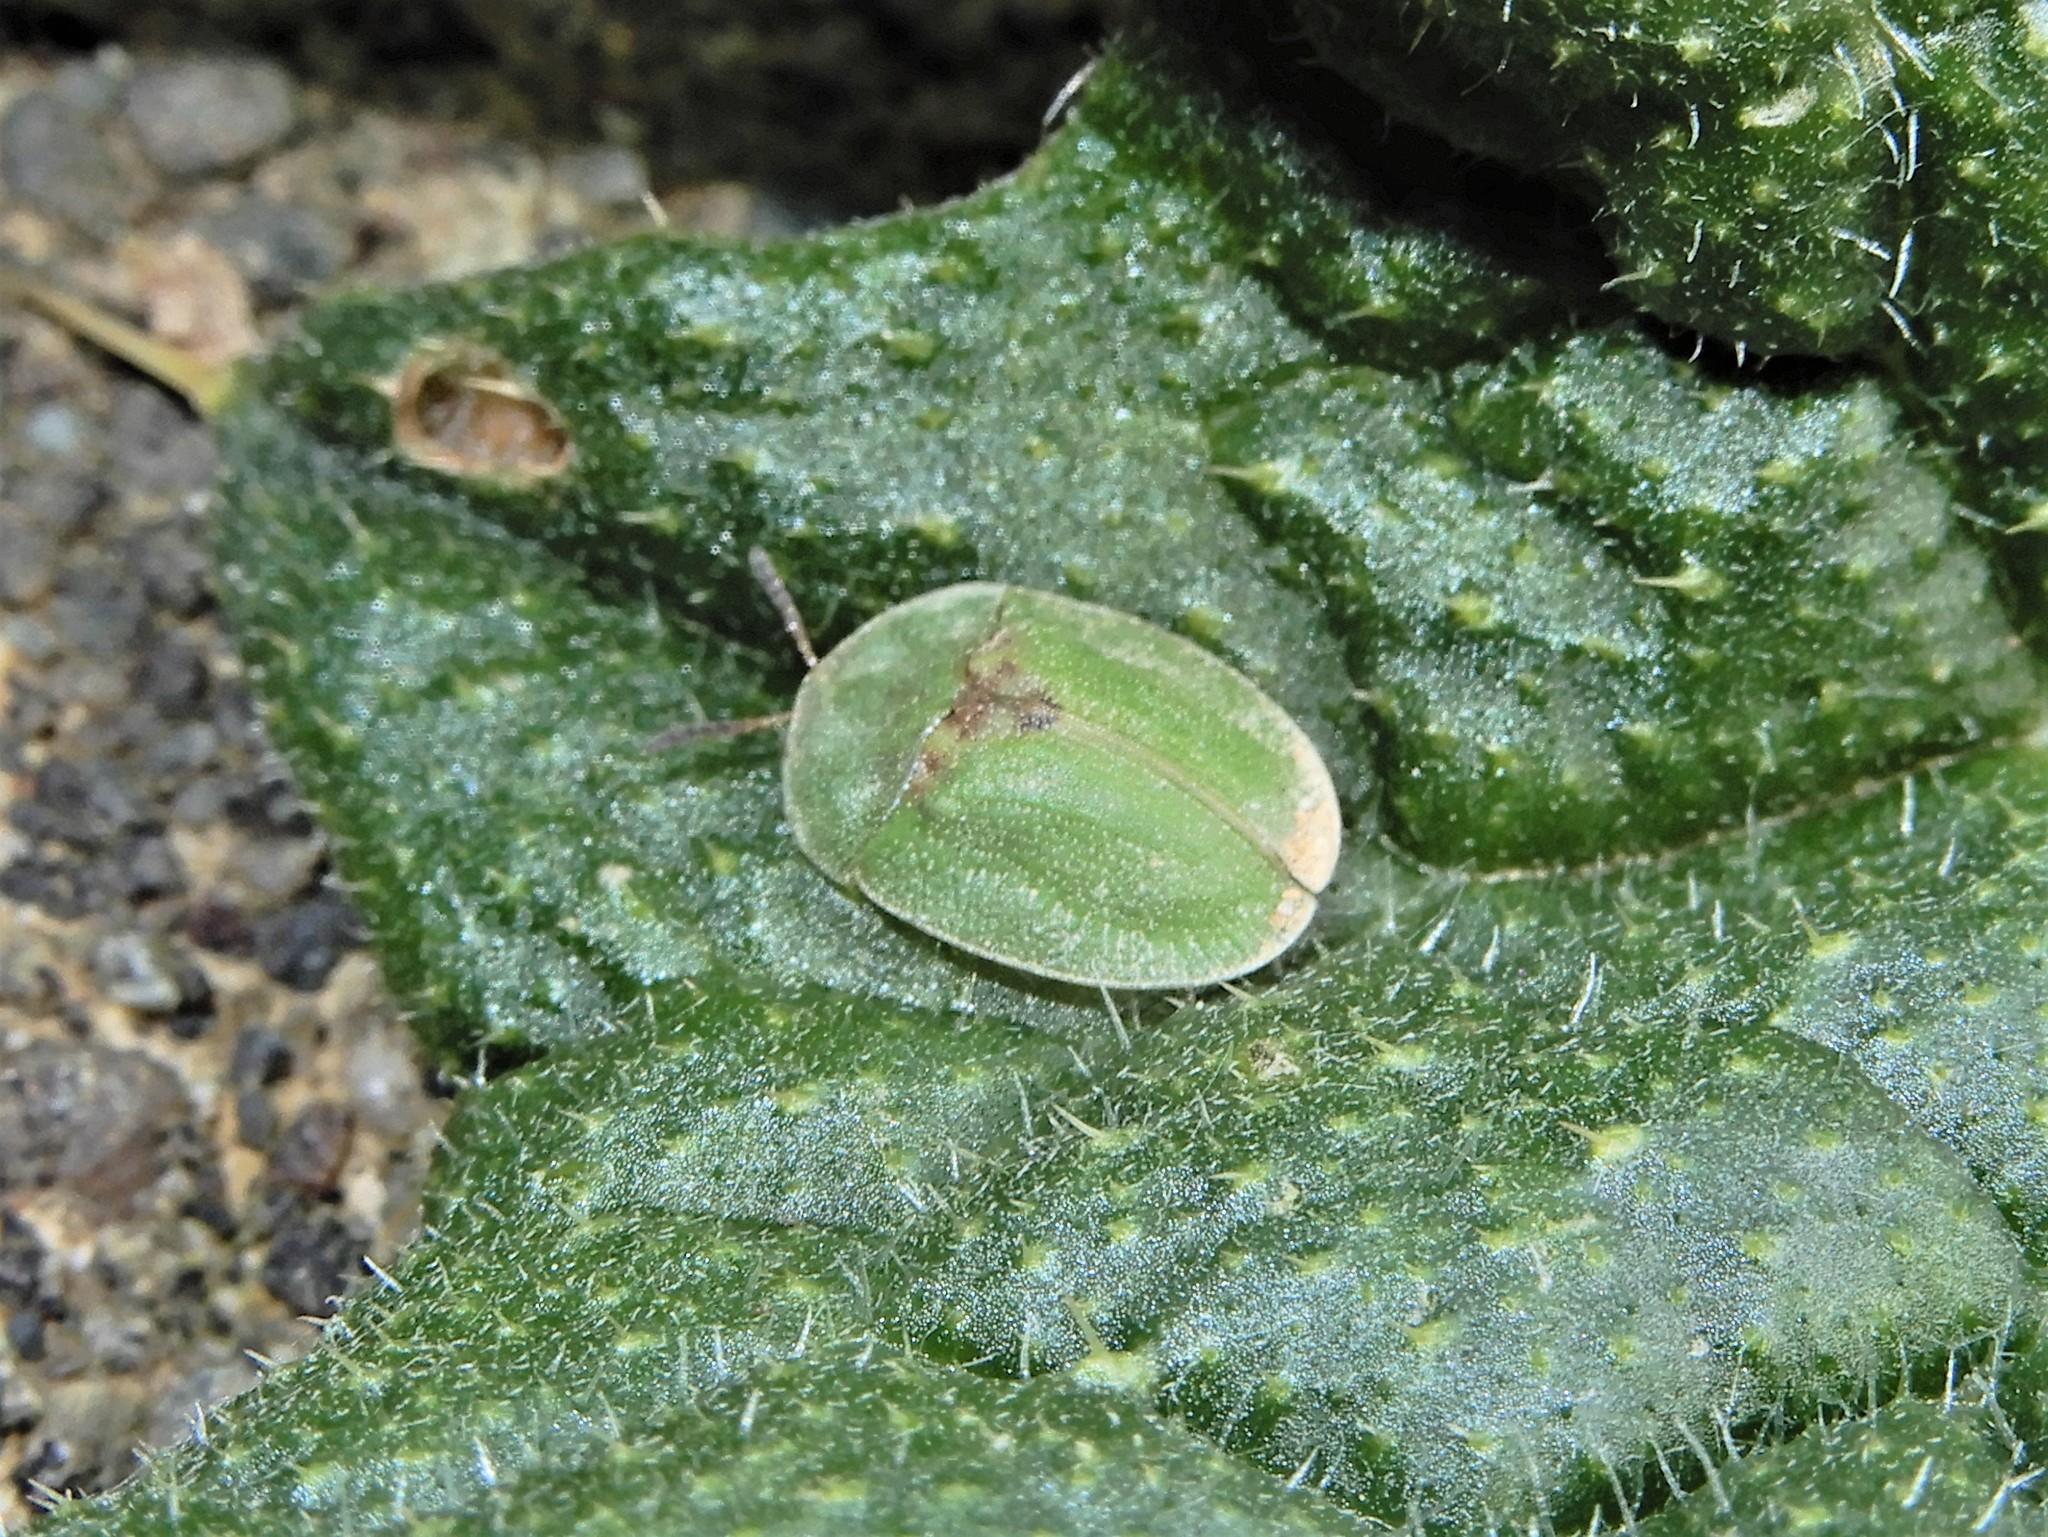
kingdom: Animalia
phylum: Arthropoda
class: Insecta
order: Coleoptera
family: Chrysomelidae
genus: Cassida
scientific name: Cassida rubiginosa
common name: Thistle tortoise beetle
